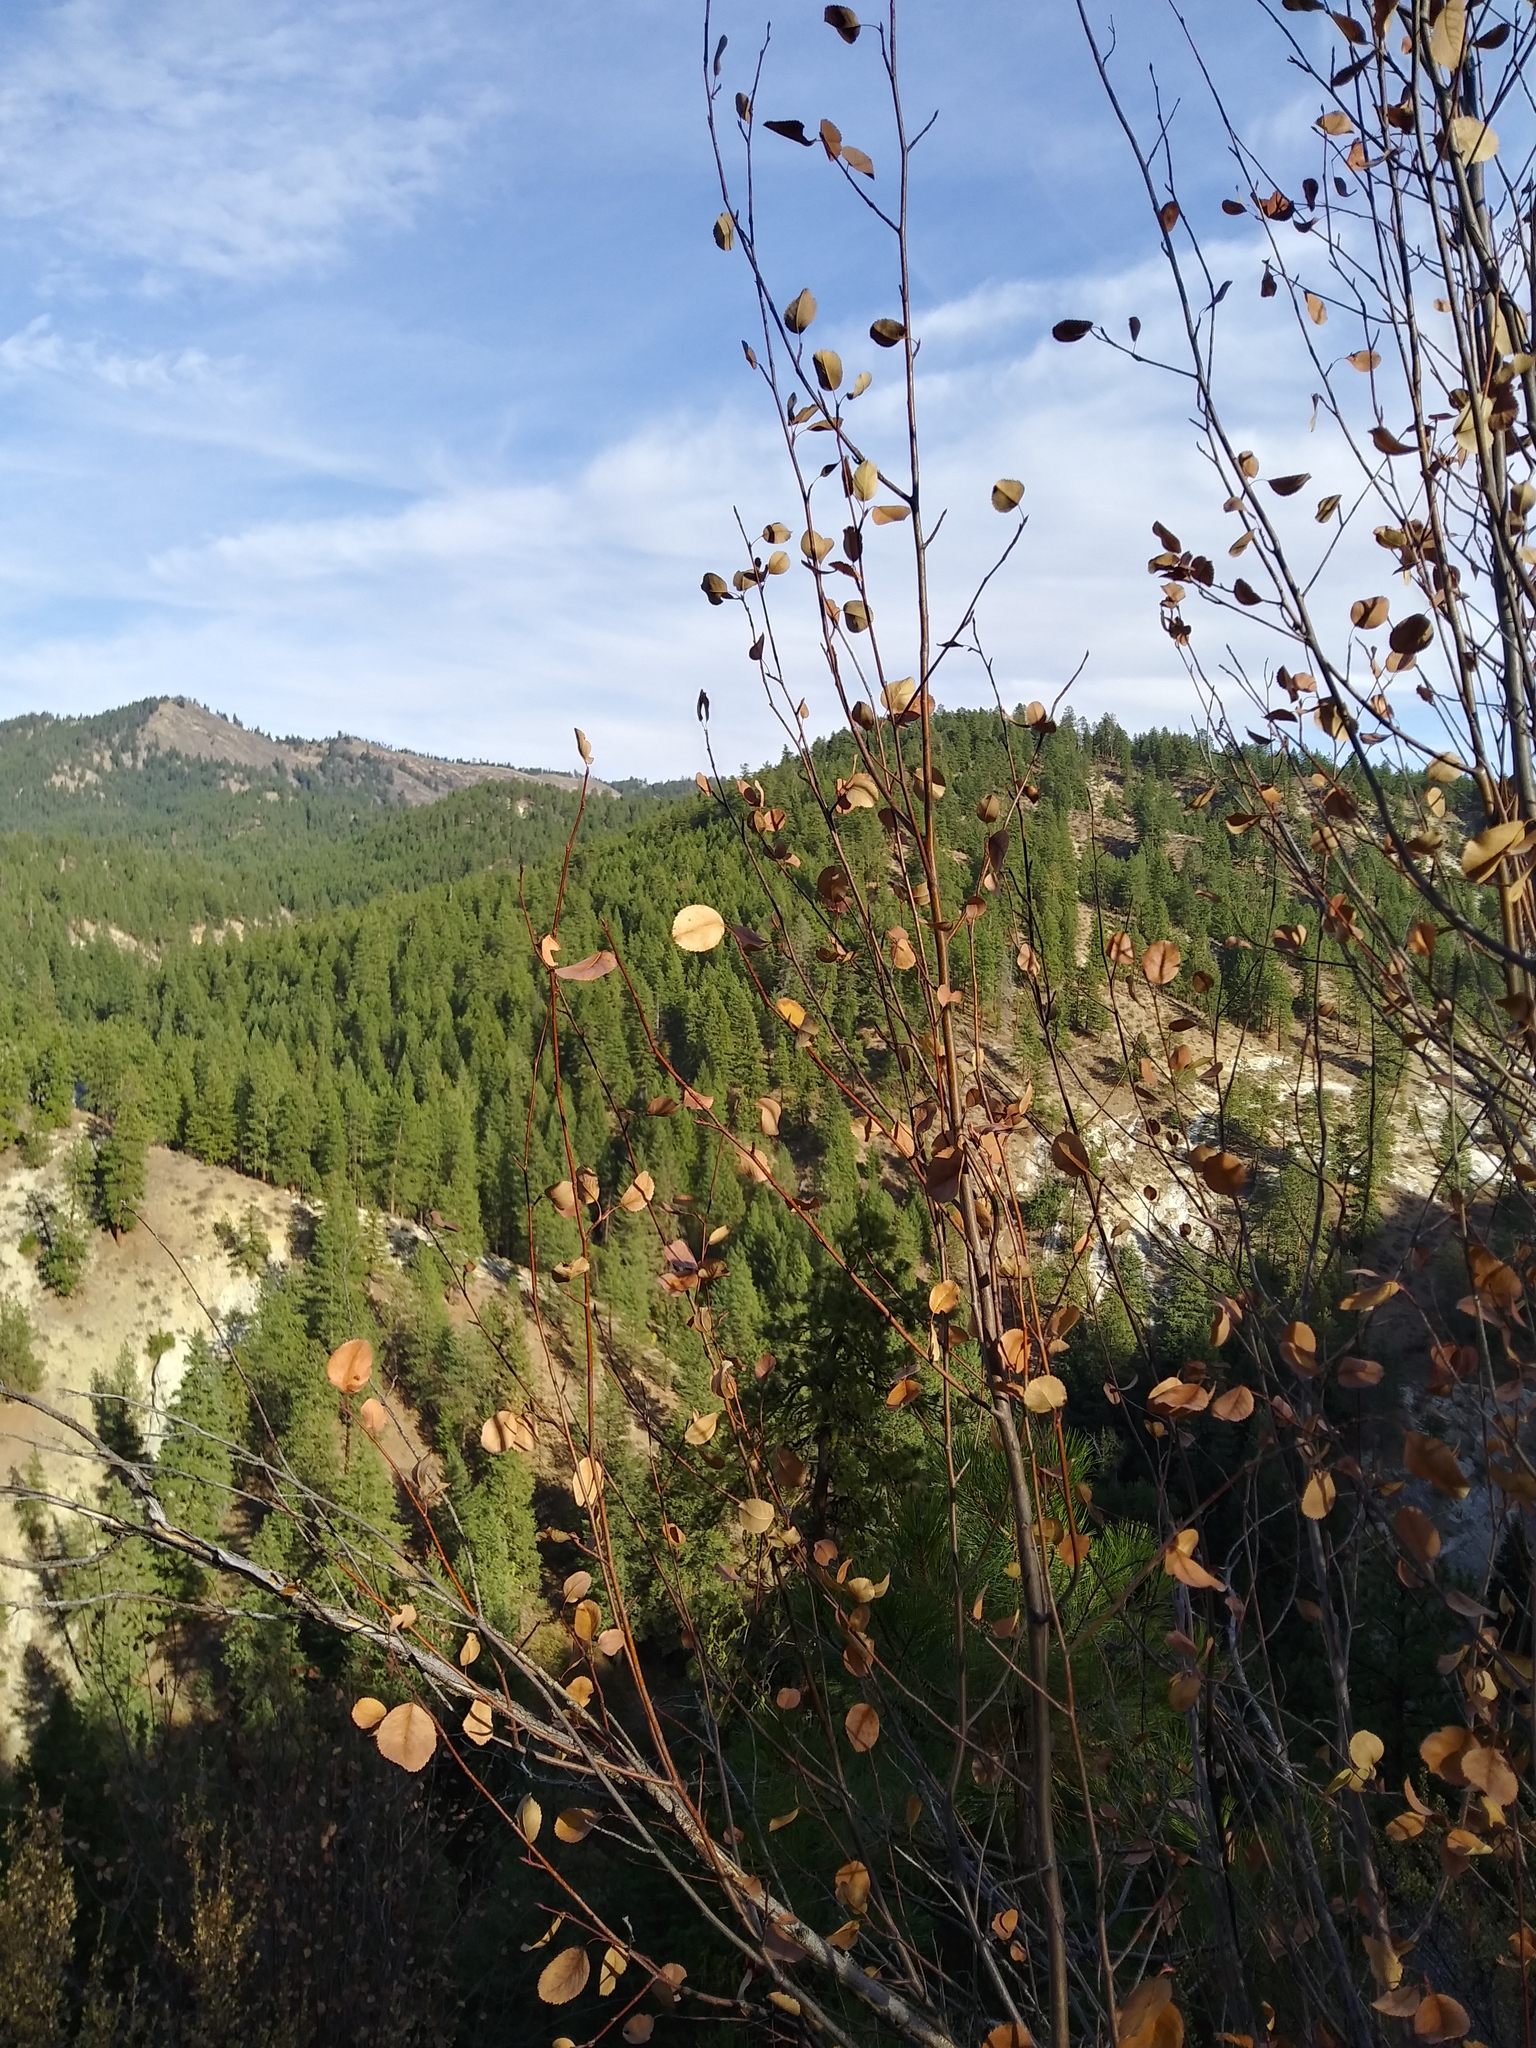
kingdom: Plantae
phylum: Tracheophyta
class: Magnoliopsida
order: Rosales
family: Rosaceae
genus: Amelanchier
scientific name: Amelanchier alnifolia
